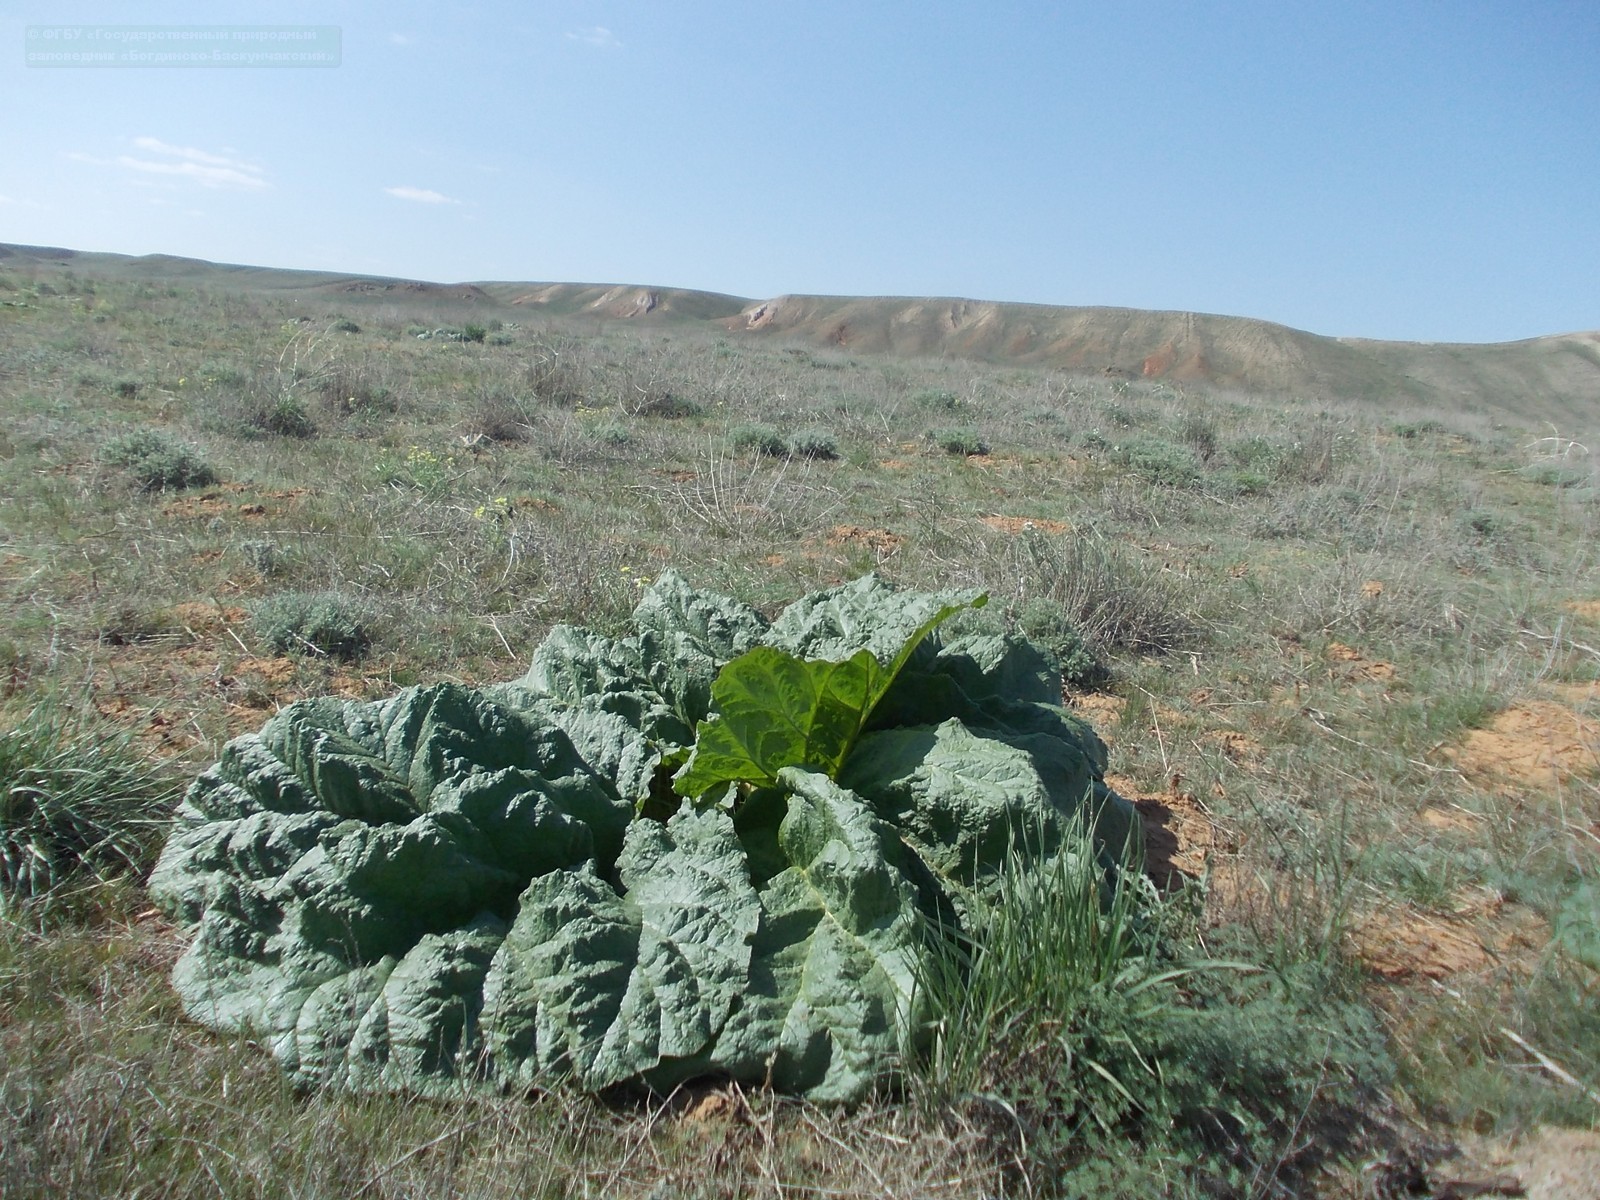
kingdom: Plantae
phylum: Tracheophyta
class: Magnoliopsida
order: Caryophyllales
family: Polygonaceae
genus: Rheum
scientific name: Rheum tataricum
